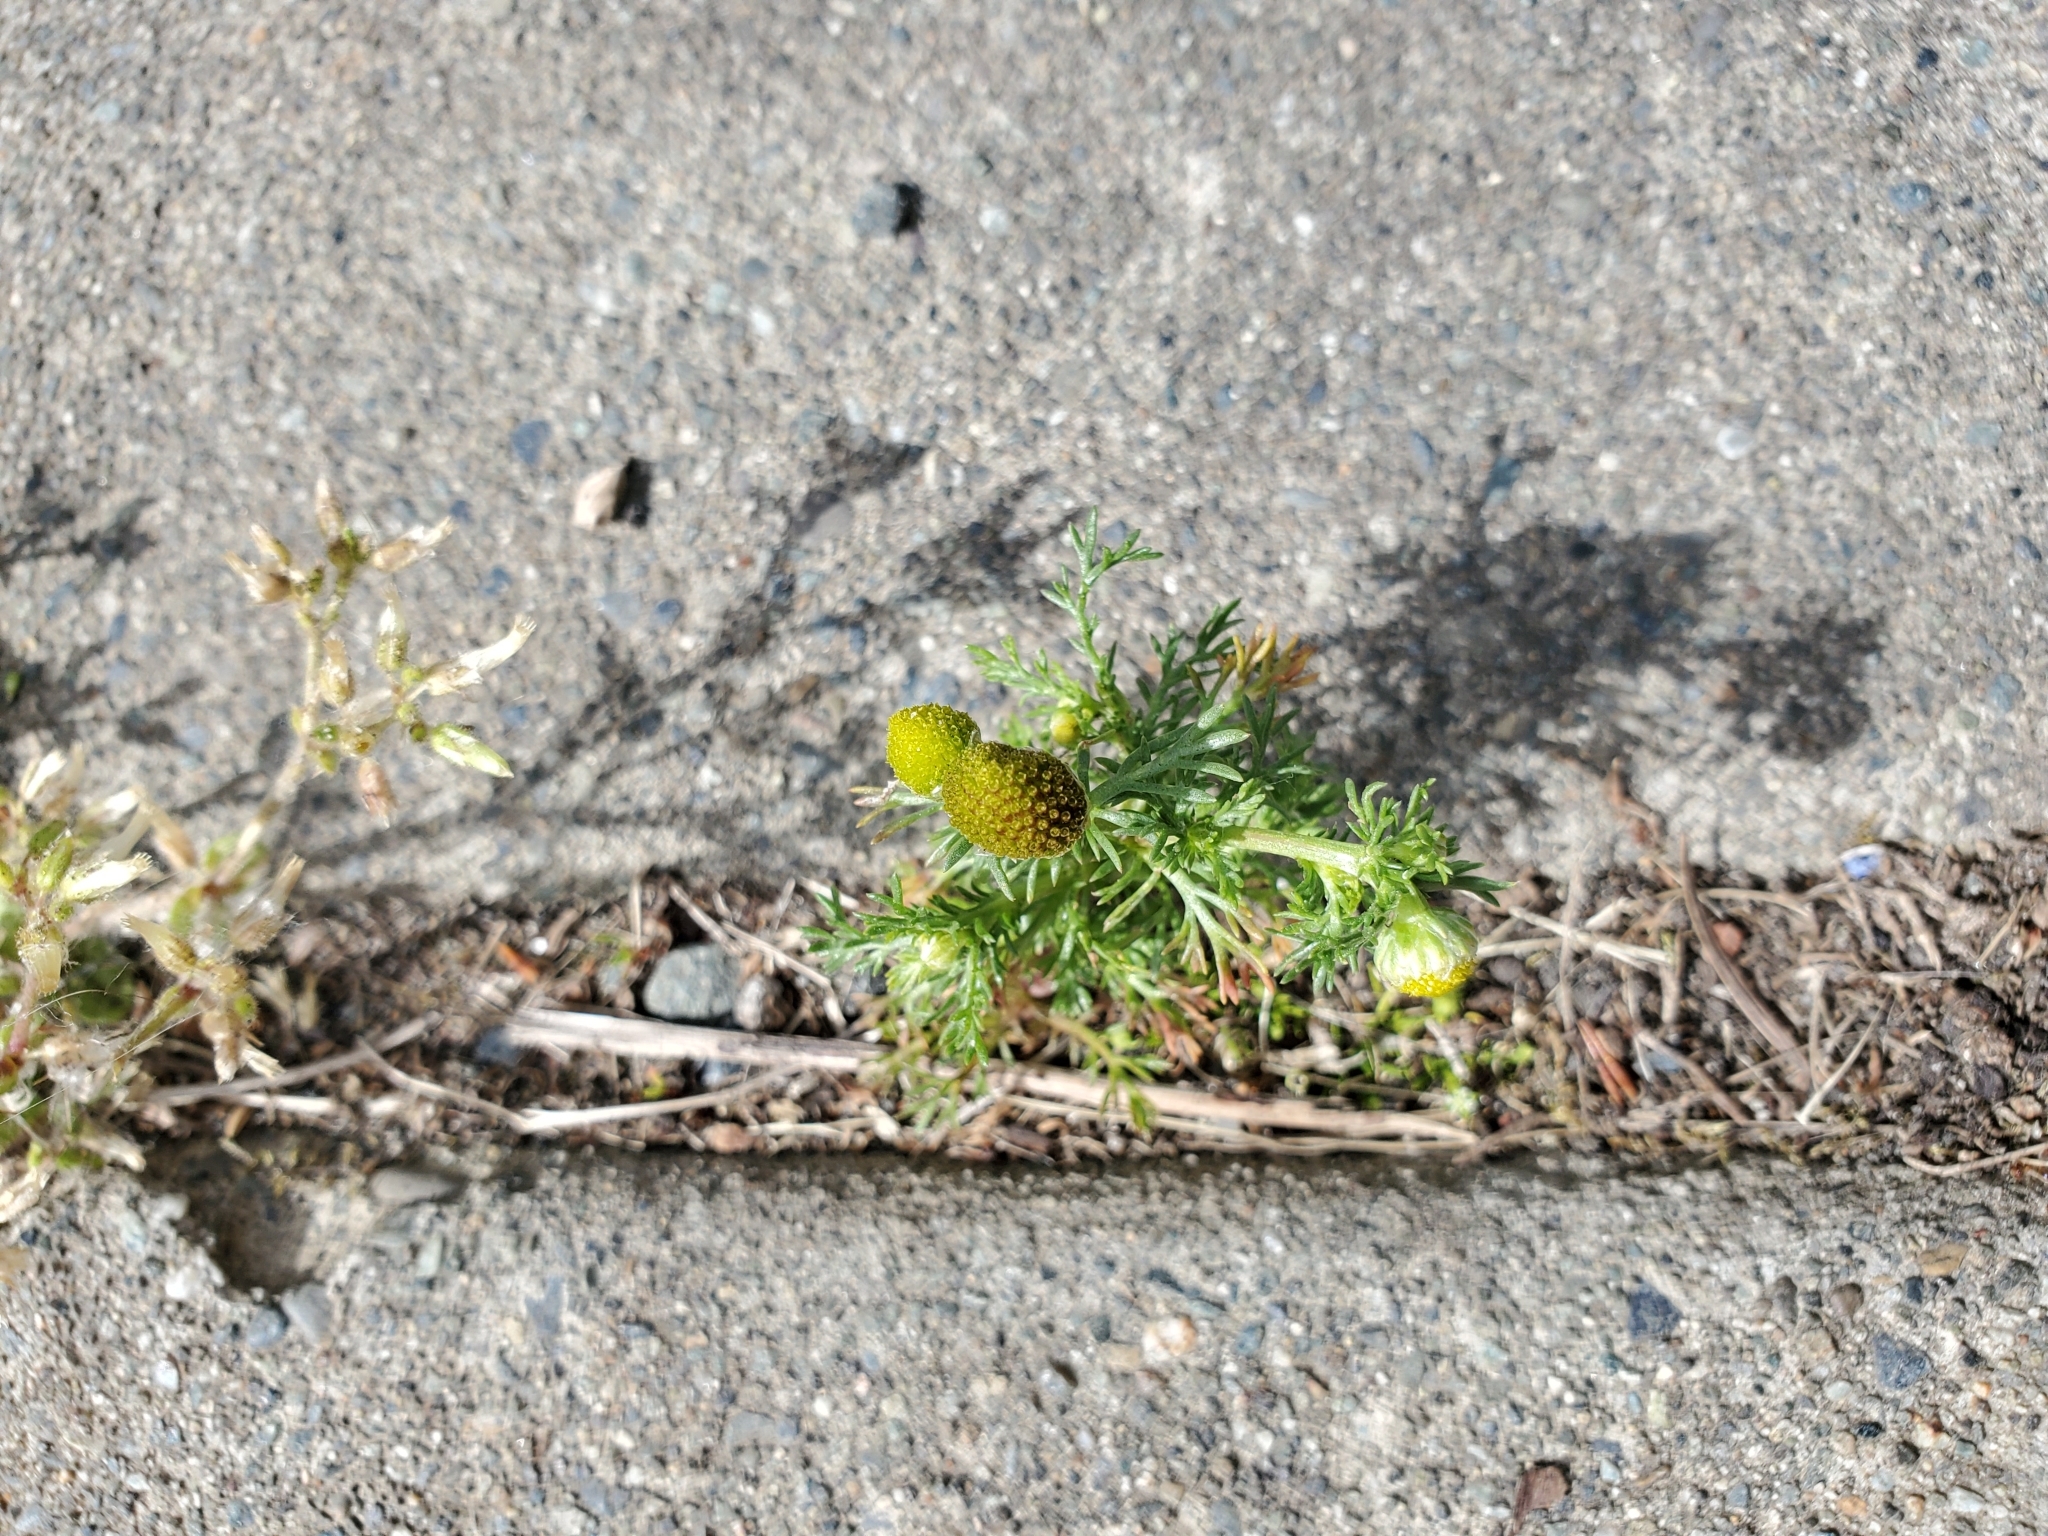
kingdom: Plantae
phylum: Tracheophyta
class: Magnoliopsida
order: Asterales
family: Asteraceae
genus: Matricaria
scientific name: Matricaria discoidea
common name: Disc mayweed
